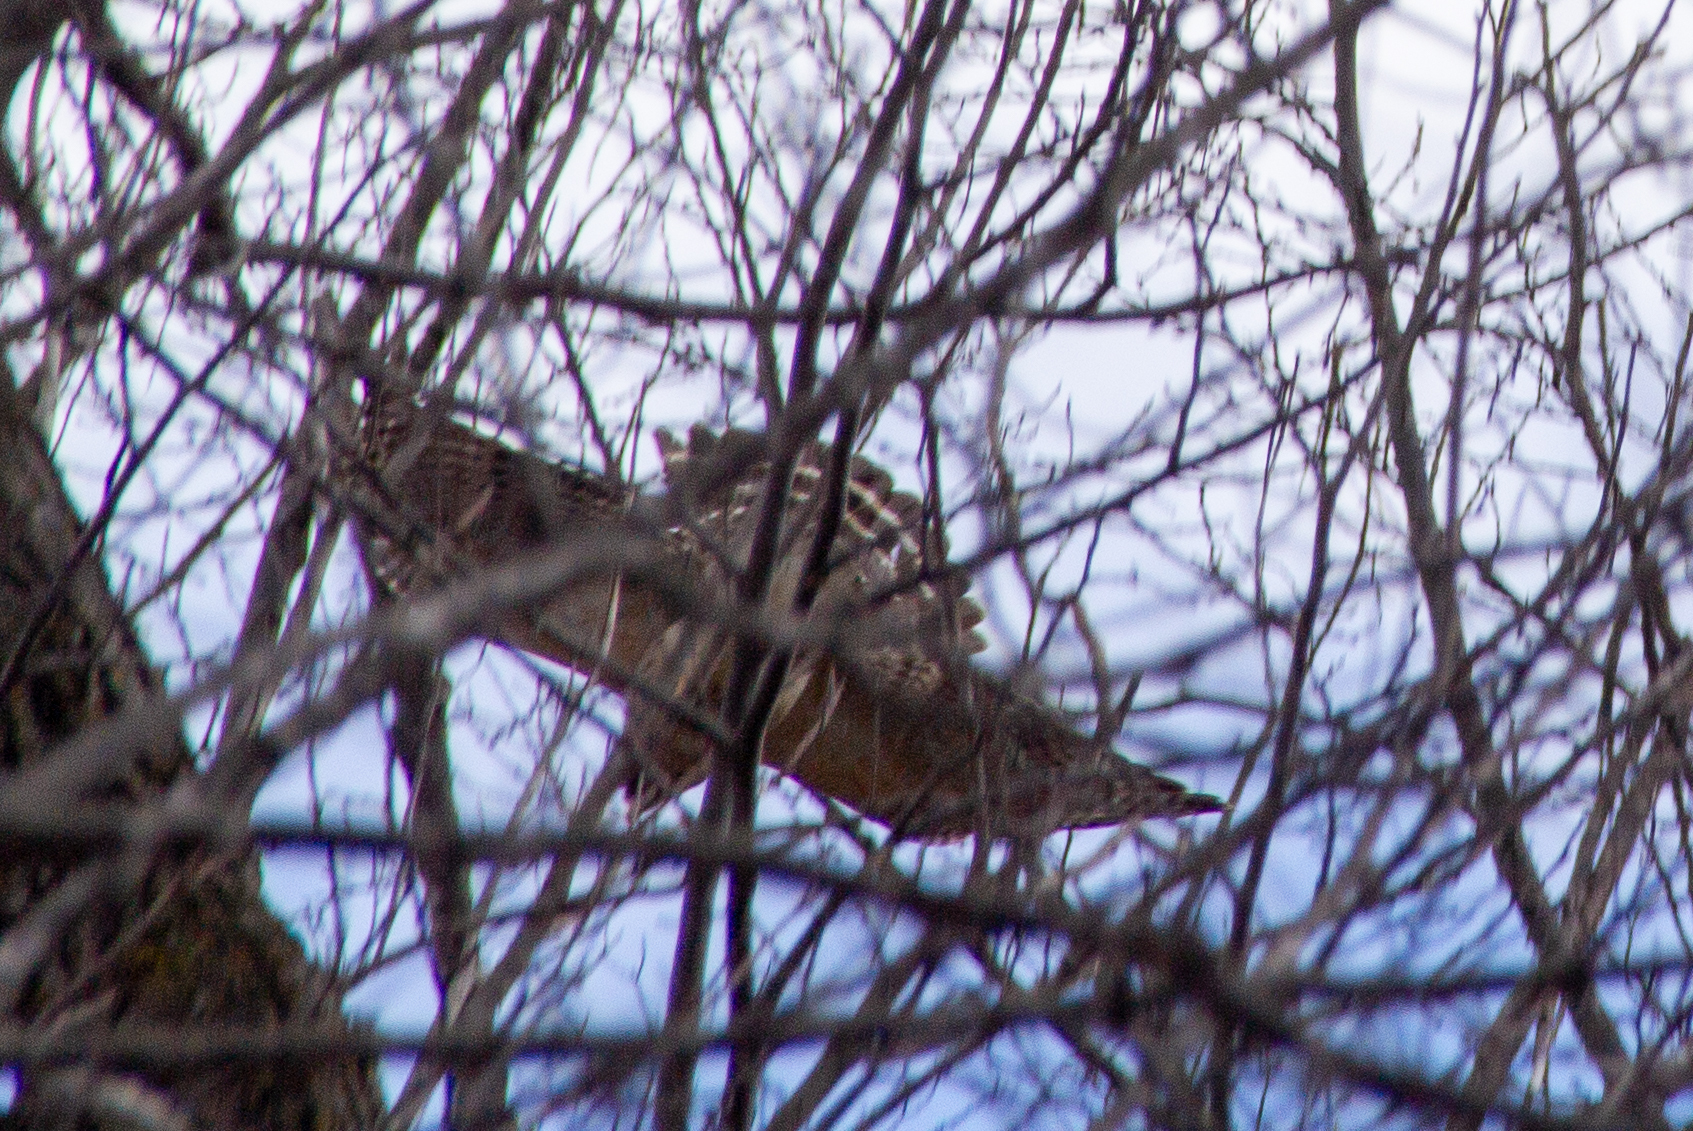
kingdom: Animalia
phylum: Chordata
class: Aves
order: Accipitriformes
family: Accipitridae
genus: Buteo
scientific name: Buteo lineatus
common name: Red-shouldered hawk
